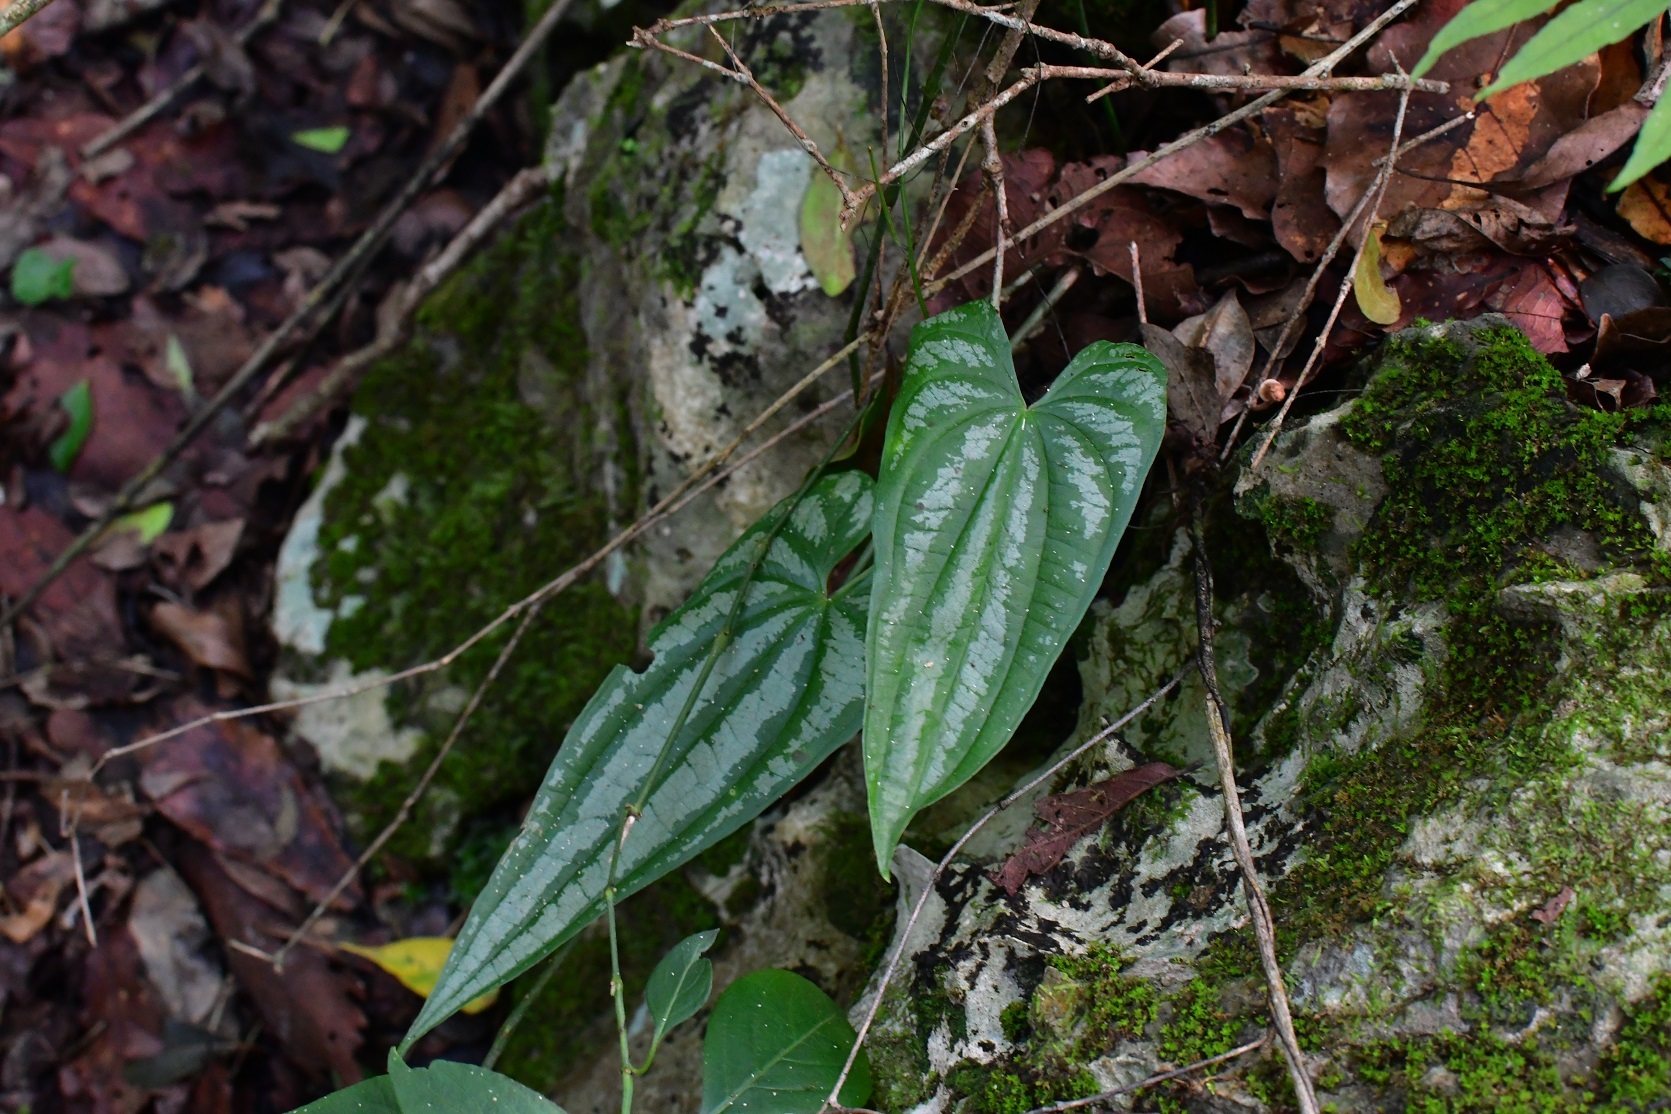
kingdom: Plantae
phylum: Tracheophyta
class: Liliopsida
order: Dioscoreales
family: Dioscoreaceae
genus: Dioscorea
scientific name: Dioscorea cyanisticta
